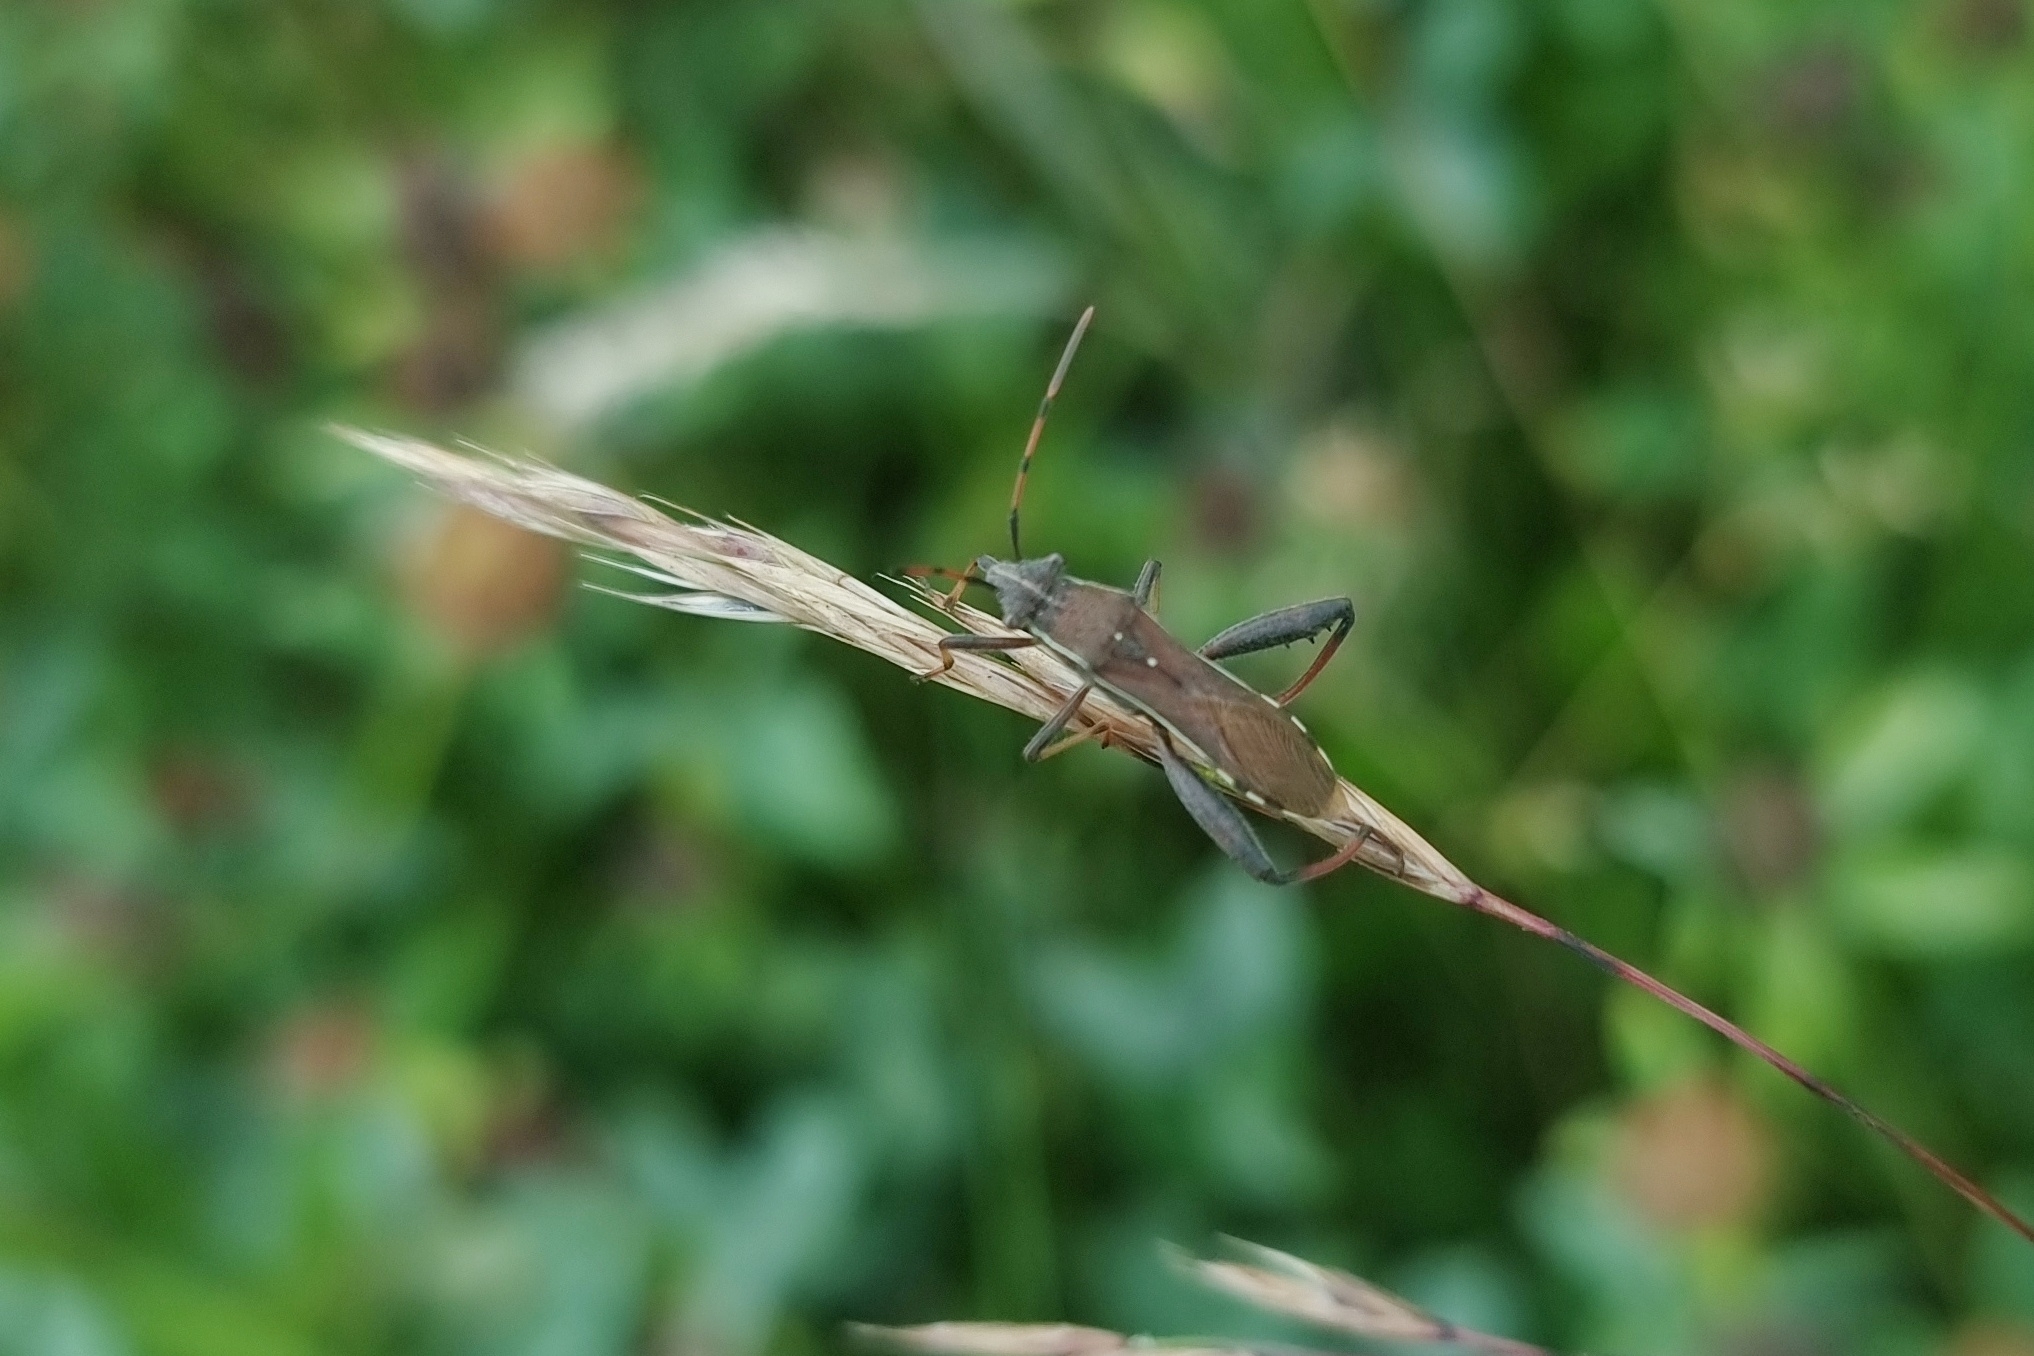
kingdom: Animalia
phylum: Arthropoda
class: Insecta
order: Hemiptera
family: Alydidae
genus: Camptopus
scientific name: Camptopus lateralis
